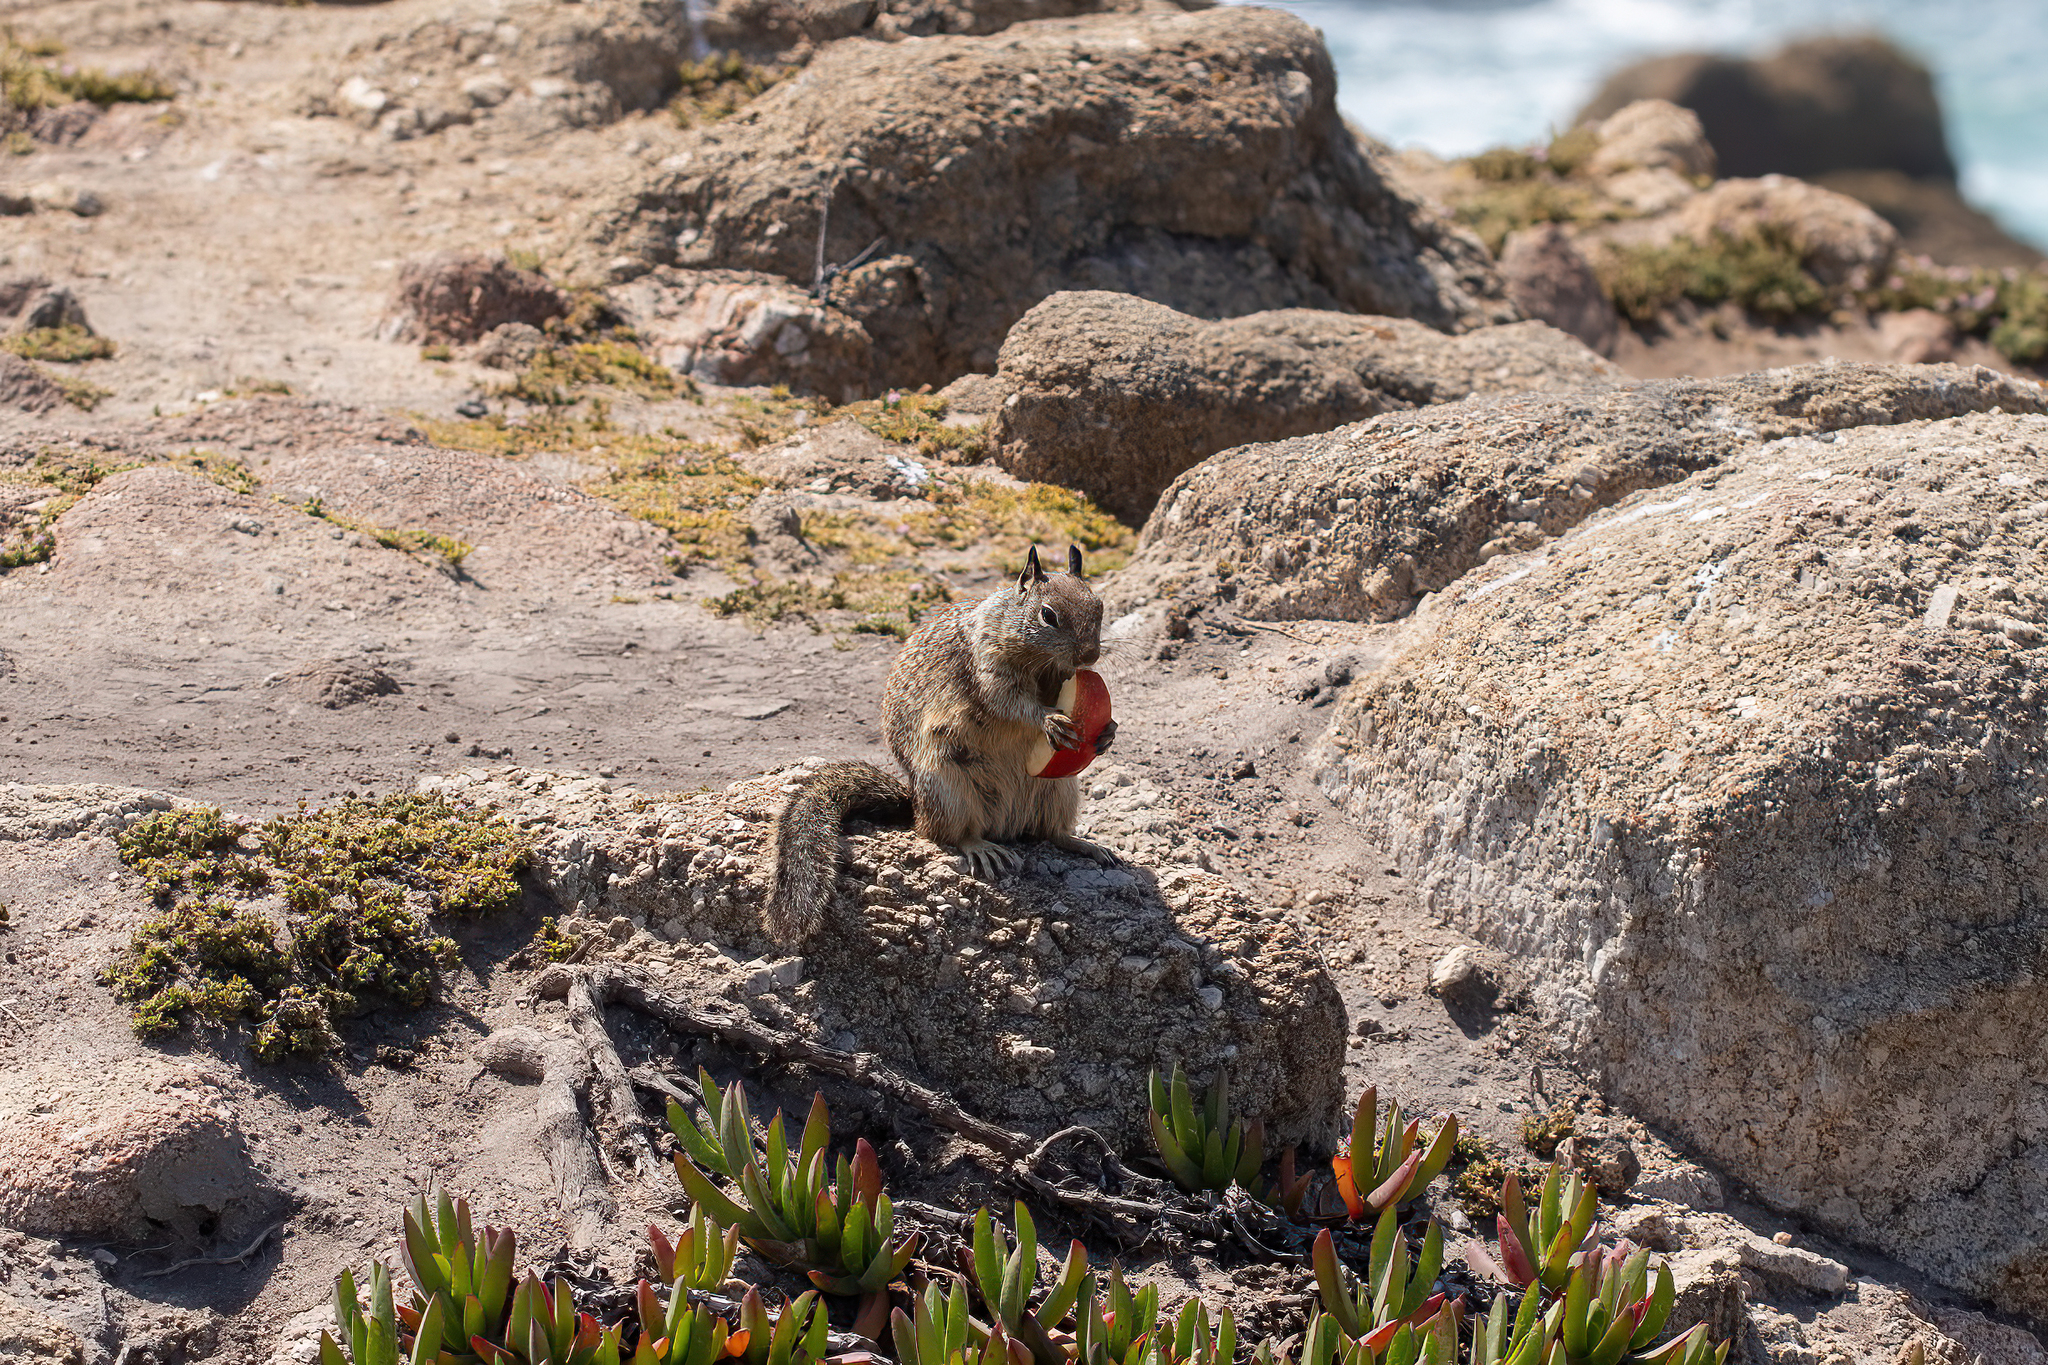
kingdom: Animalia
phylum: Chordata
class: Mammalia
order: Rodentia
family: Sciuridae
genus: Otospermophilus
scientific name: Otospermophilus beecheyi
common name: California ground squirrel
